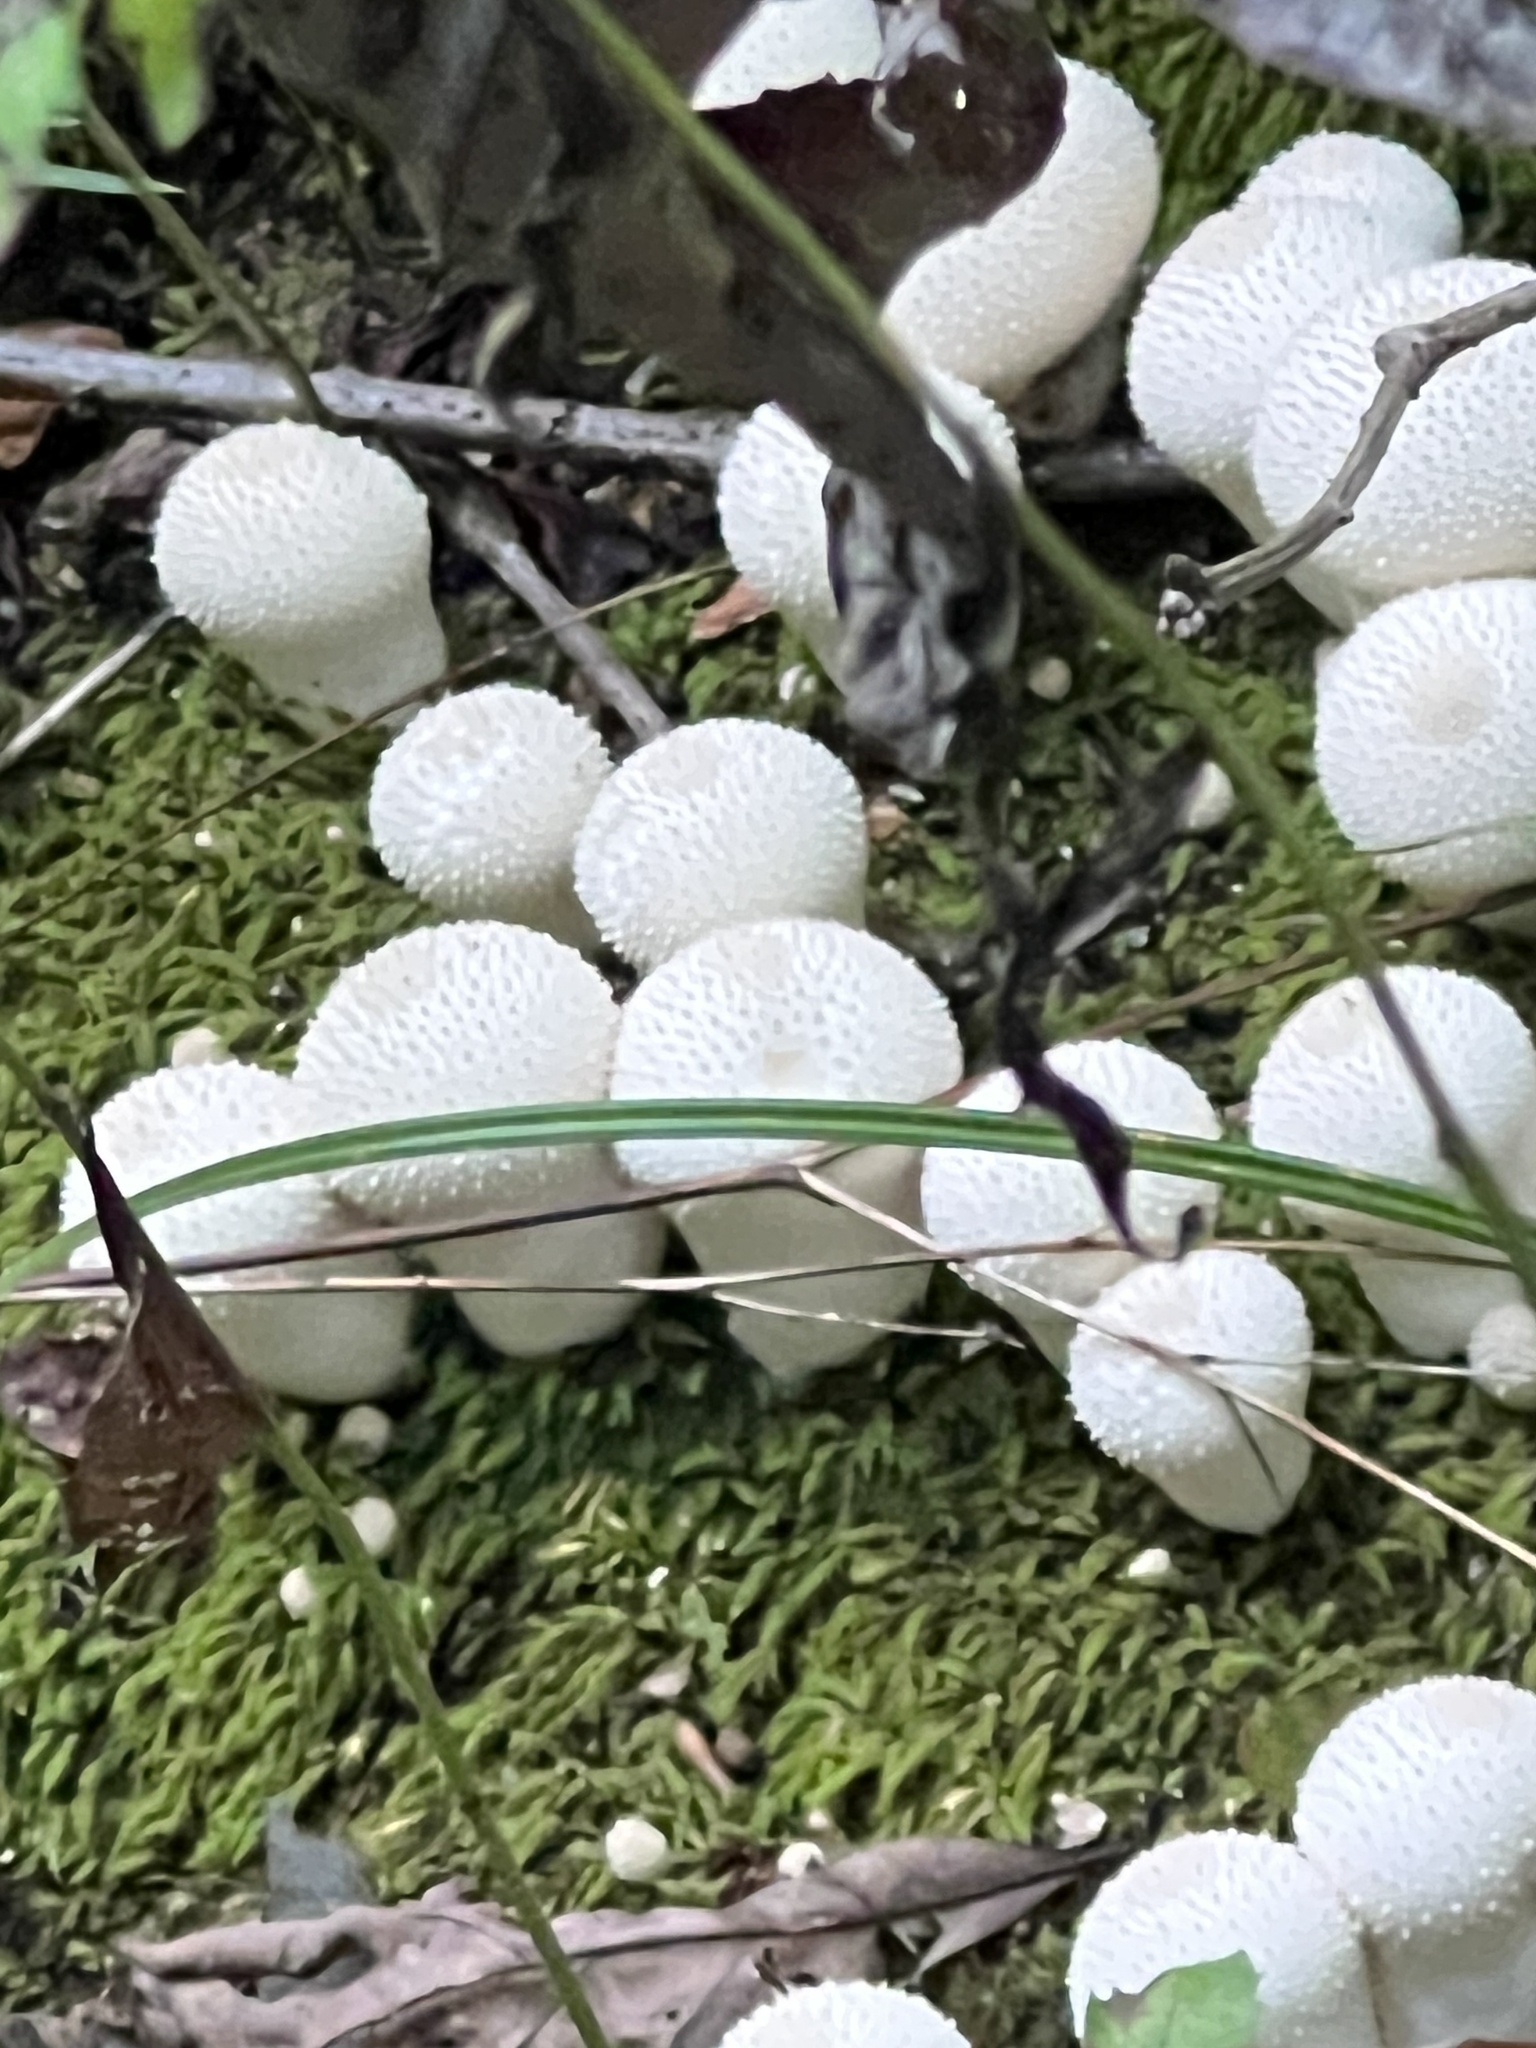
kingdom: Fungi
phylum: Basidiomycota
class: Agaricomycetes
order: Agaricales
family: Lycoperdaceae
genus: Lycoperdon
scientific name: Lycoperdon perlatum
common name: Common puffball
